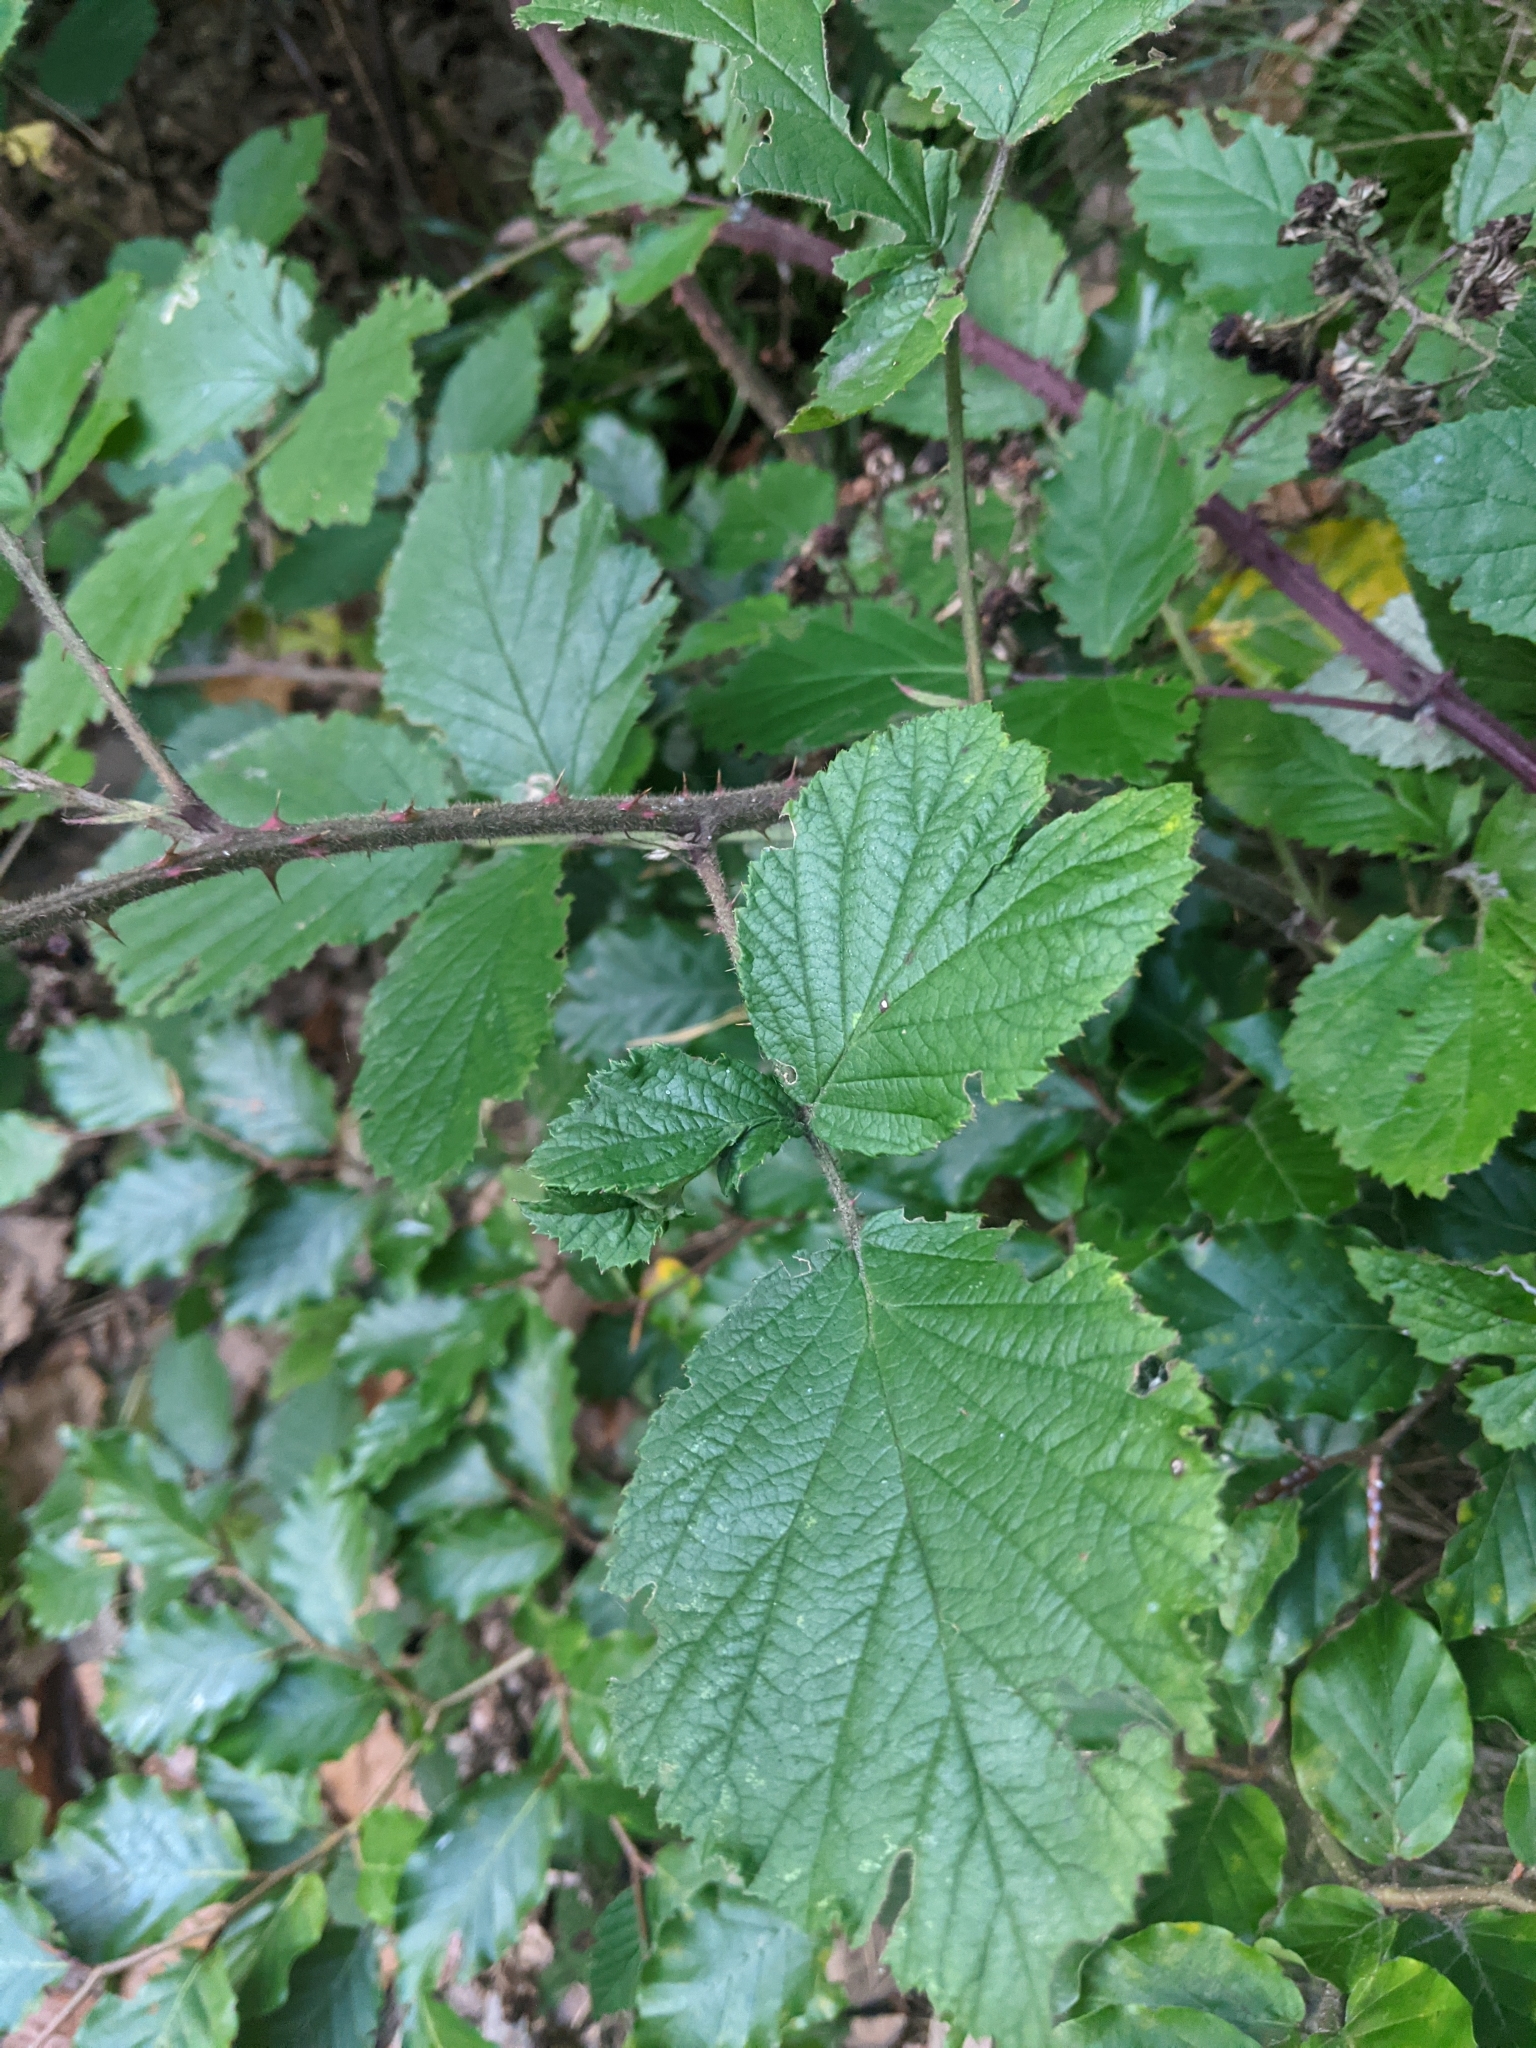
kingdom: Plantae
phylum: Tracheophyta
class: Magnoliopsida
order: Rosales
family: Rosaceae
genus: Rubus
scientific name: Rubus polonicus
